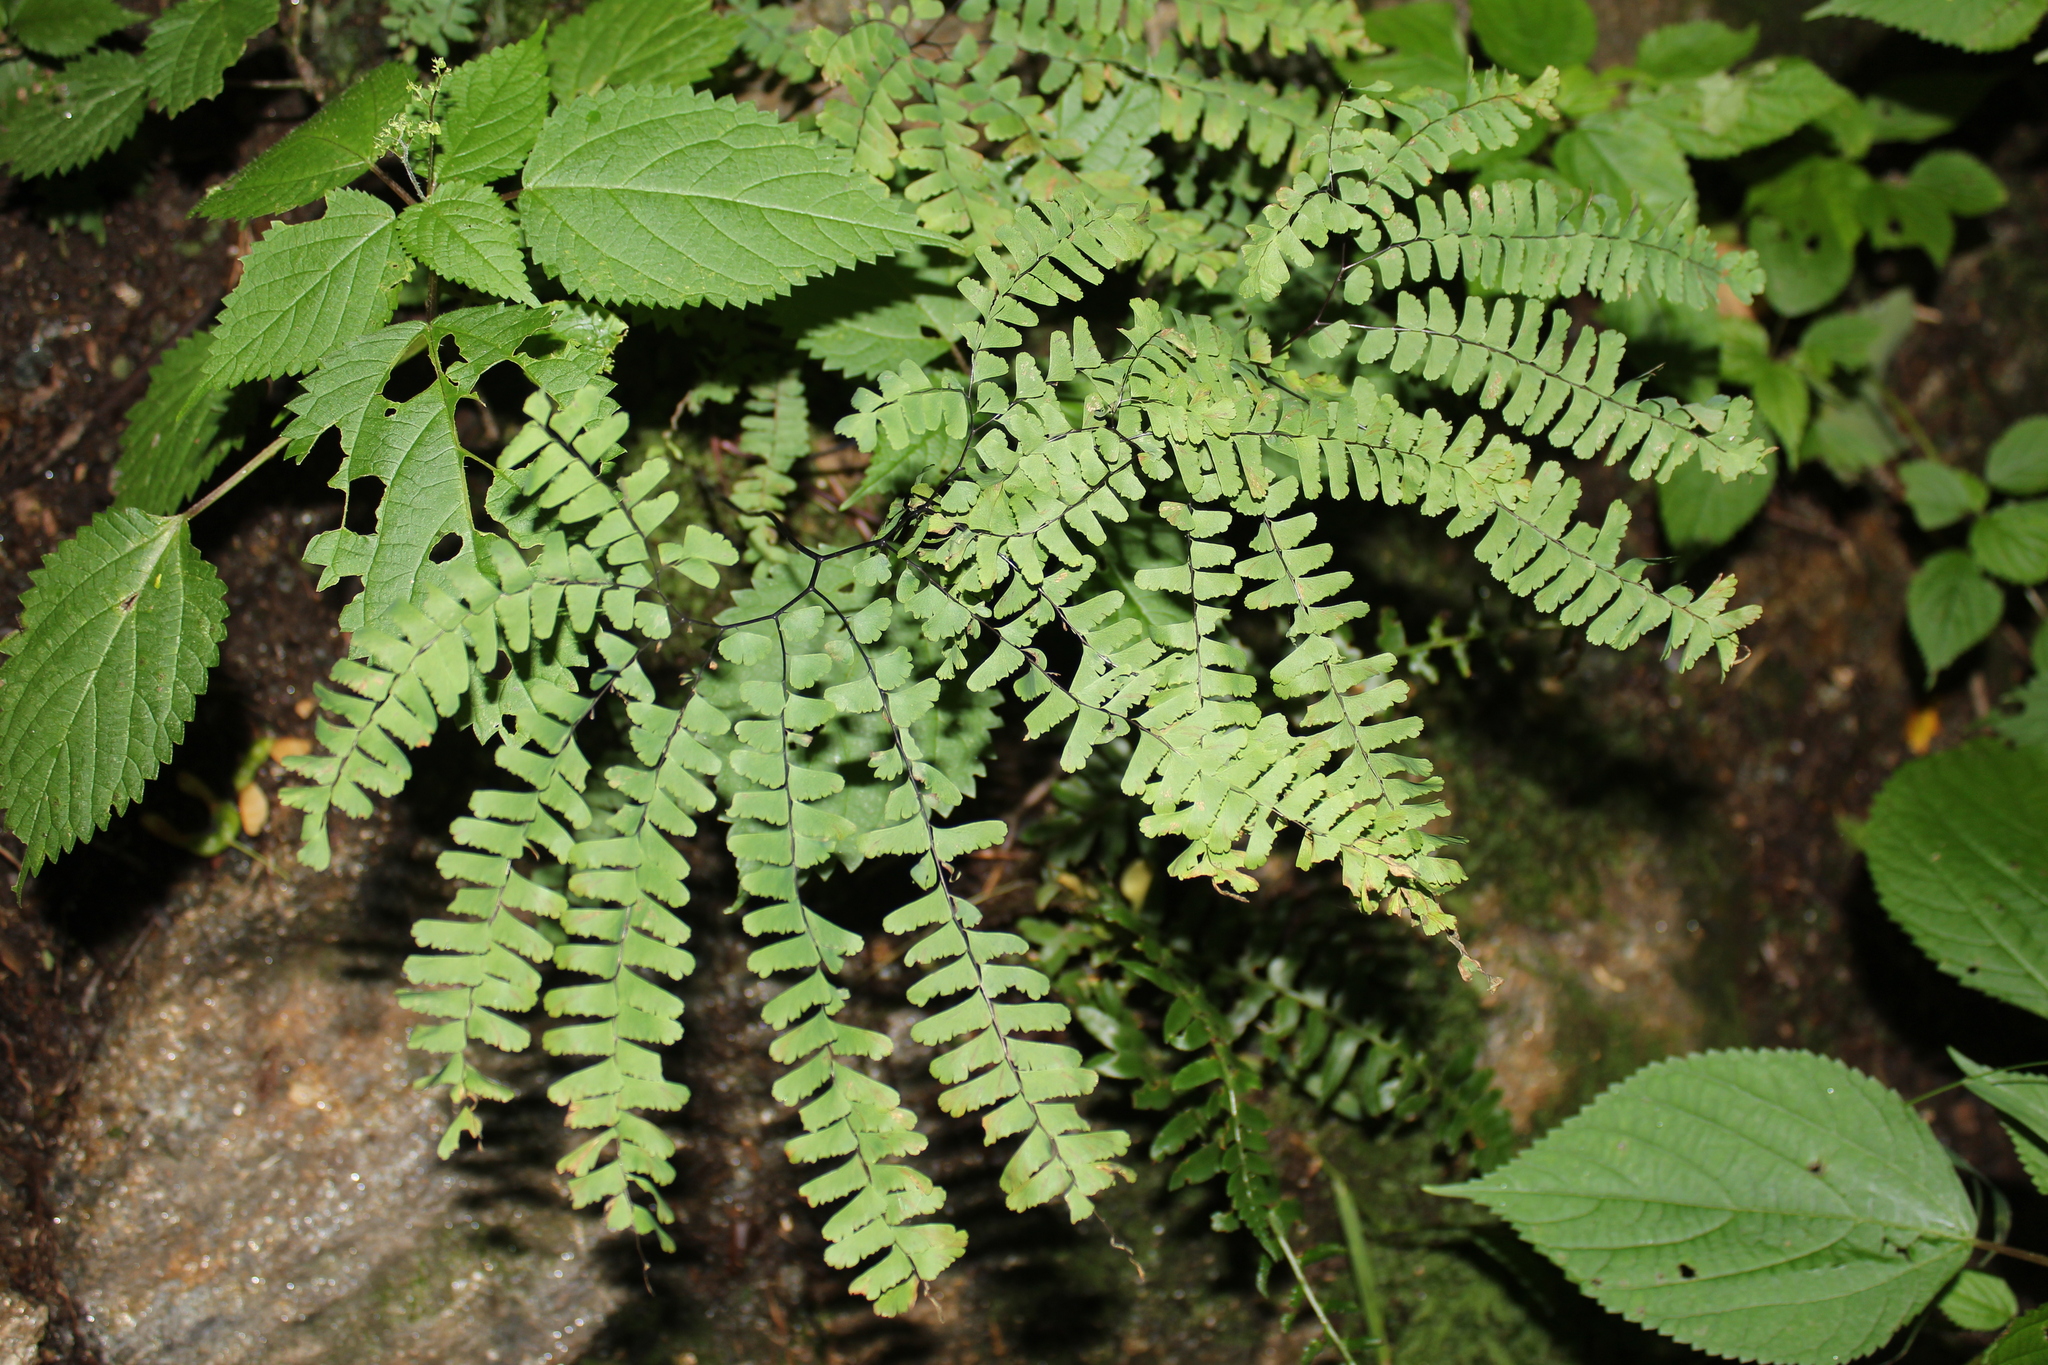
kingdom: Plantae
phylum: Tracheophyta
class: Polypodiopsida
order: Polypodiales
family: Pteridaceae
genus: Adiantum
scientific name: Adiantum pedatum
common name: Five-finger fern
